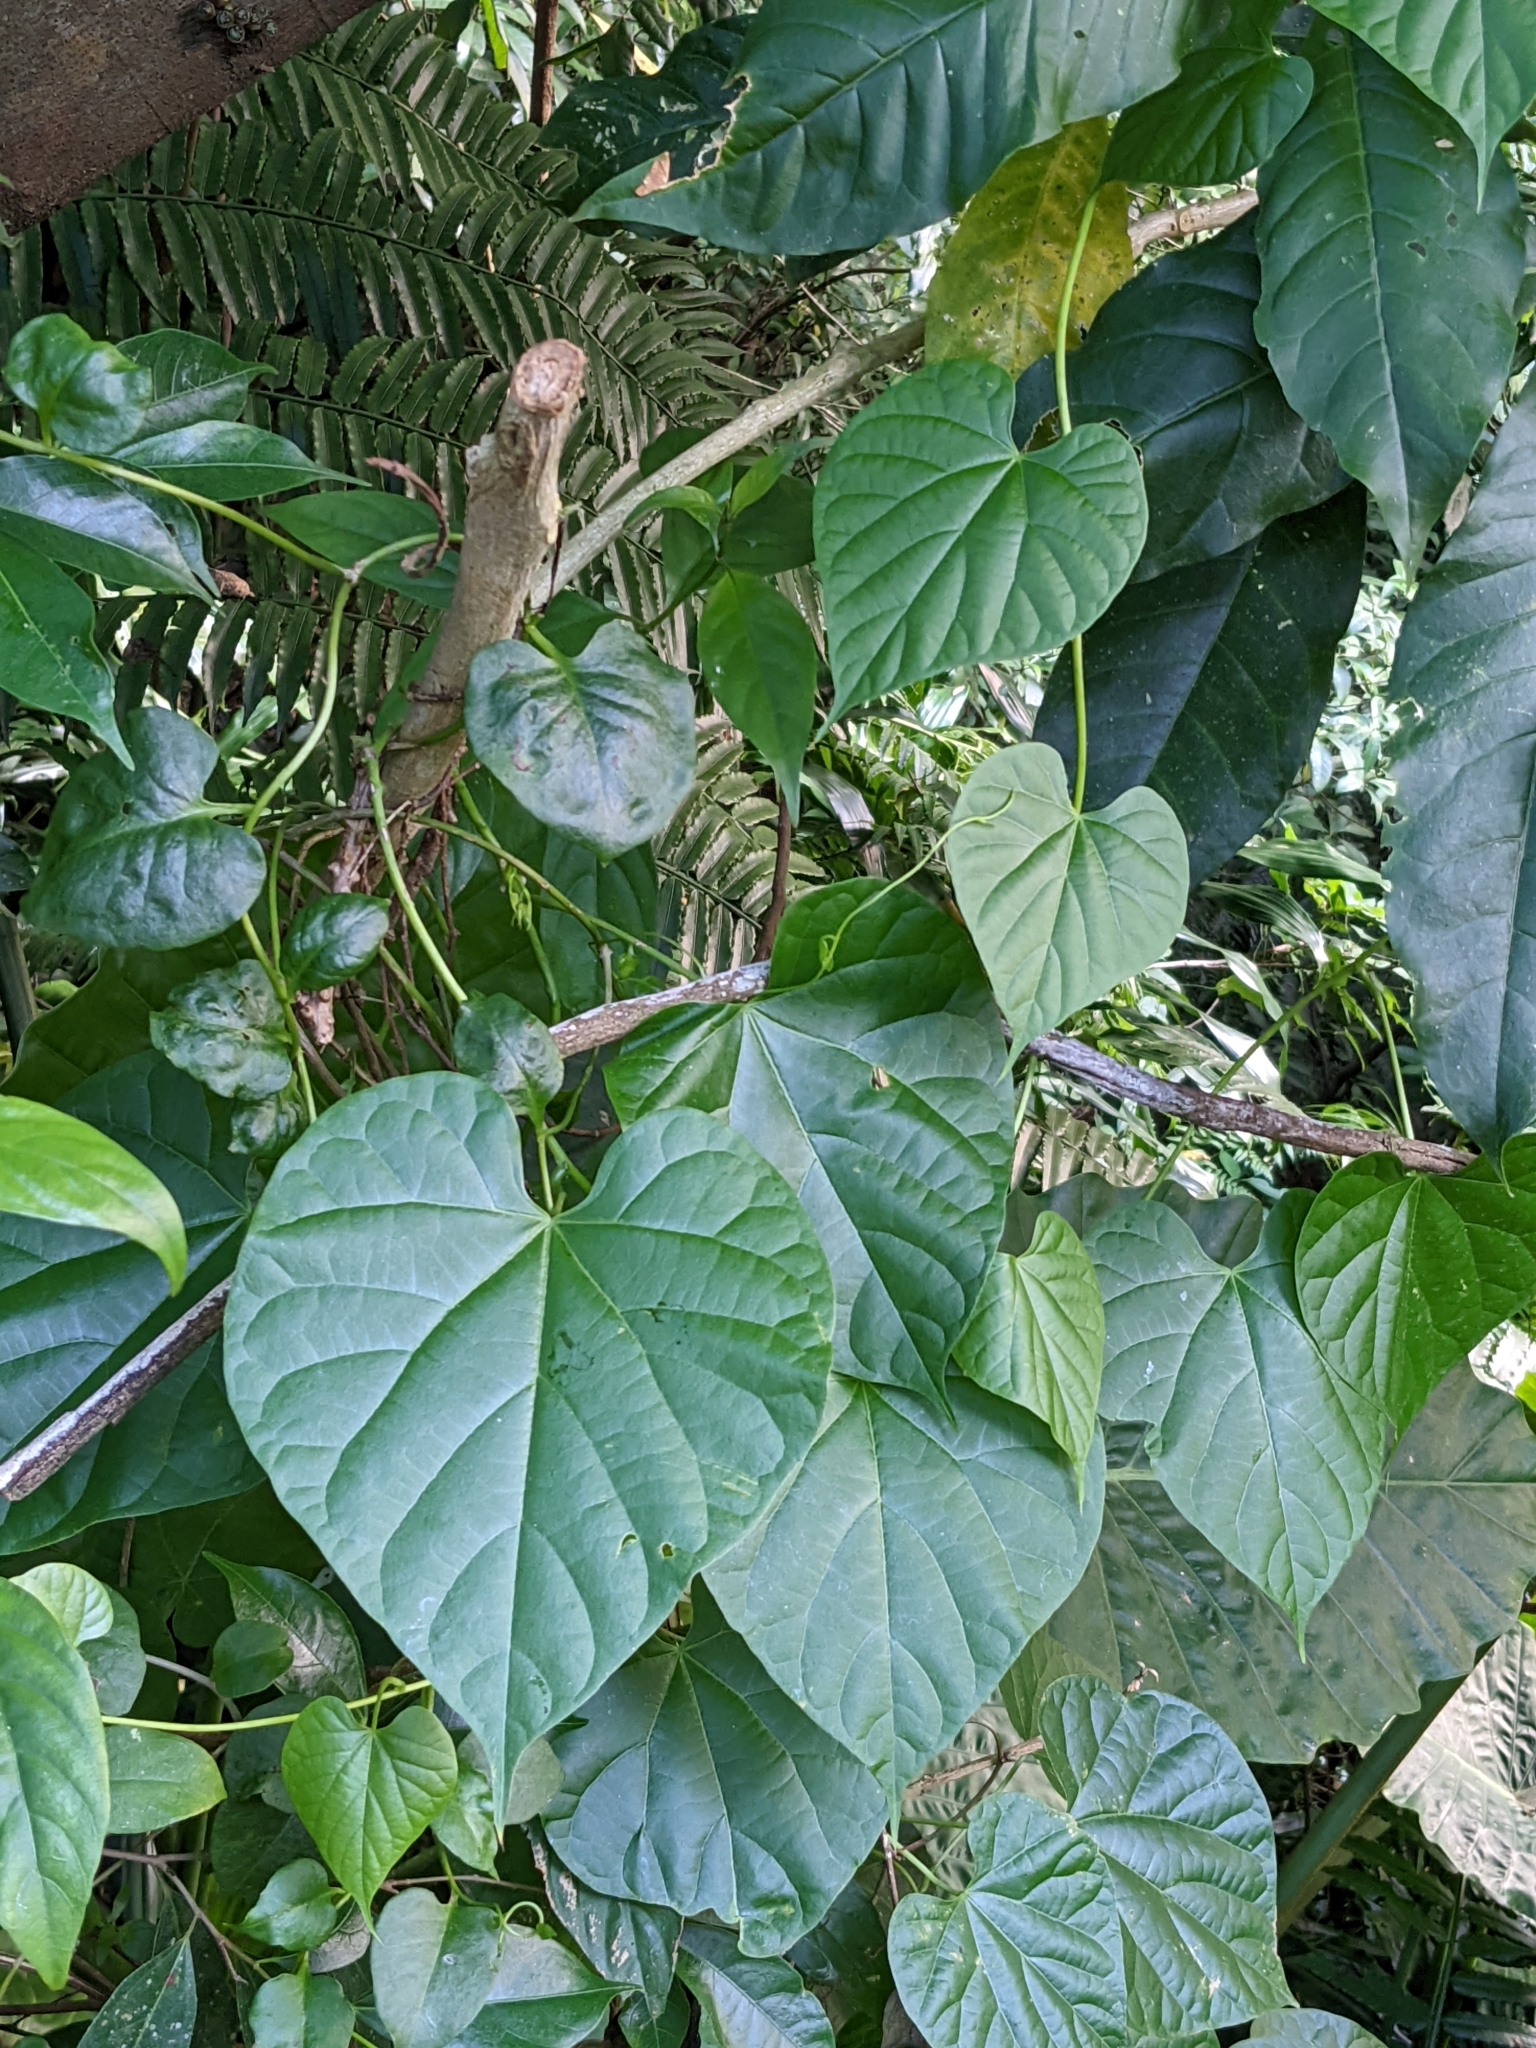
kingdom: Plantae
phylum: Tracheophyta
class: Magnoliopsida
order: Ranunculales
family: Menispermaceae
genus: Tinospora
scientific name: Tinospora crispa
